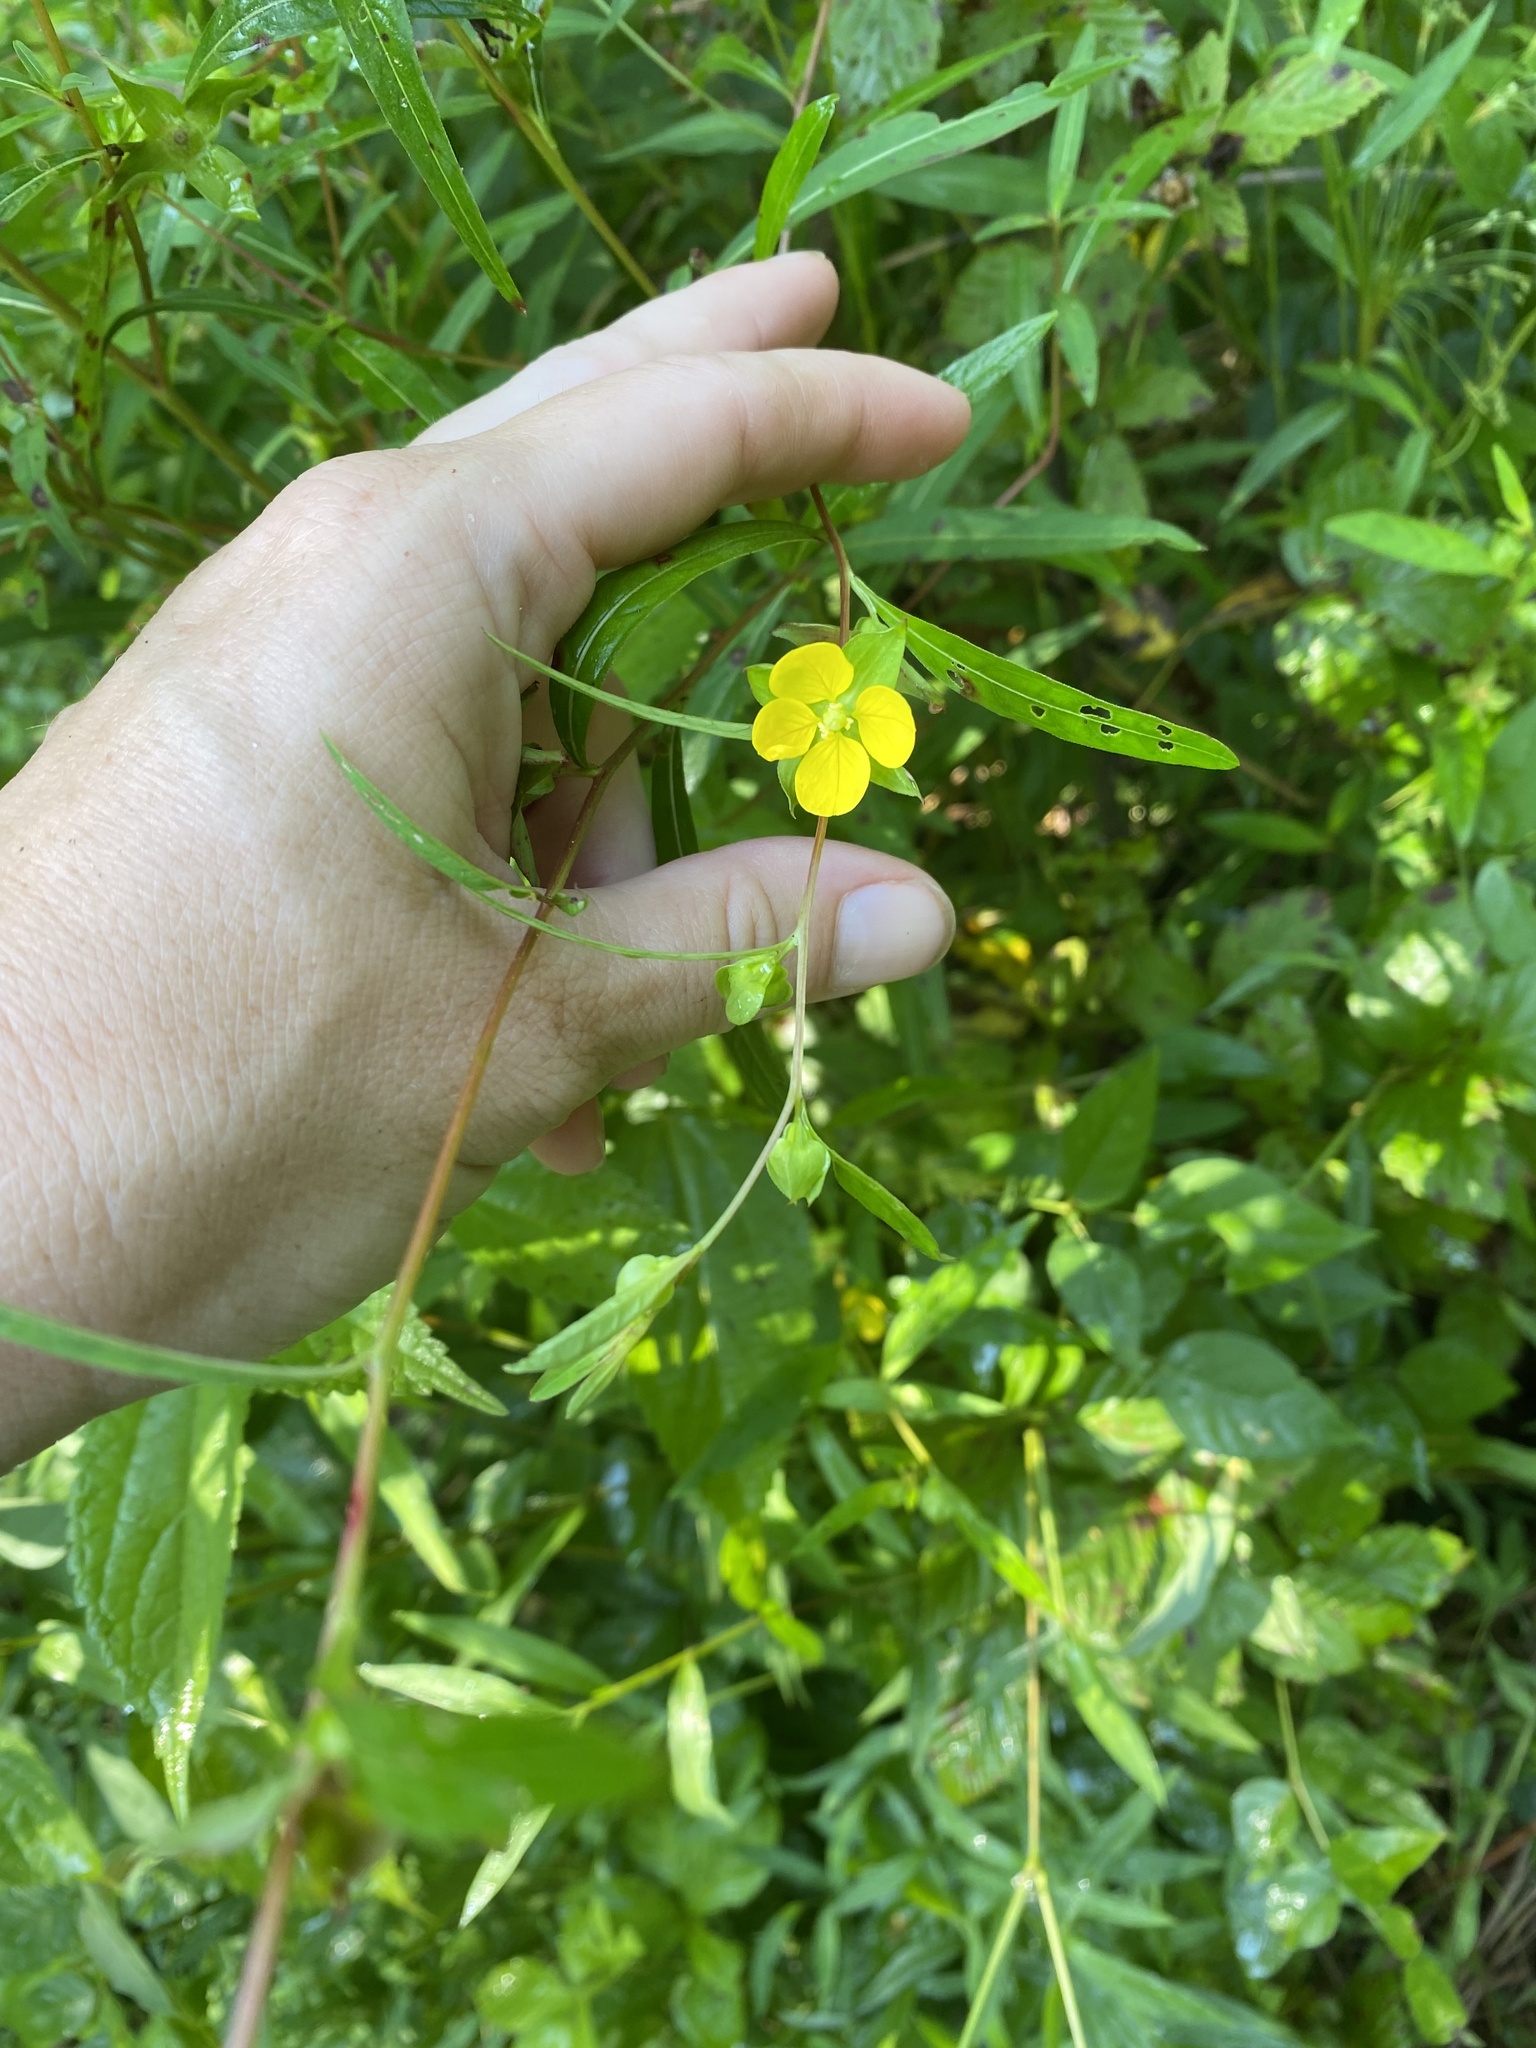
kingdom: Plantae
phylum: Tracheophyta
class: Magnoliopsida
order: Myrtales
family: Onagraceae
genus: Ludwigia
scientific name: Ludwigia alternifolia
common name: Rattlebox
